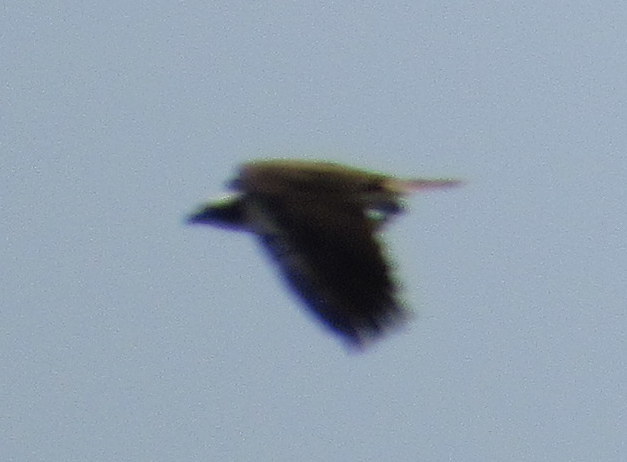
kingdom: Animalia
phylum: Chordata
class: Aves
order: Accipitriformes
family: Pandionidae
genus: Pandion
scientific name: Pandion haliaetus
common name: Osprey
